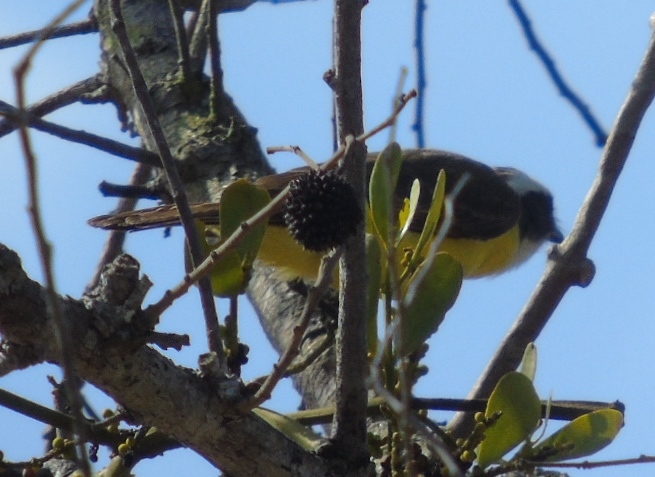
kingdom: Animalia
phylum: Chordata
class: Aves
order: Passeriformes
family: Tyrannidae
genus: Myiozetetes
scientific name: Myiozetetes similis
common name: Social flycatcher
